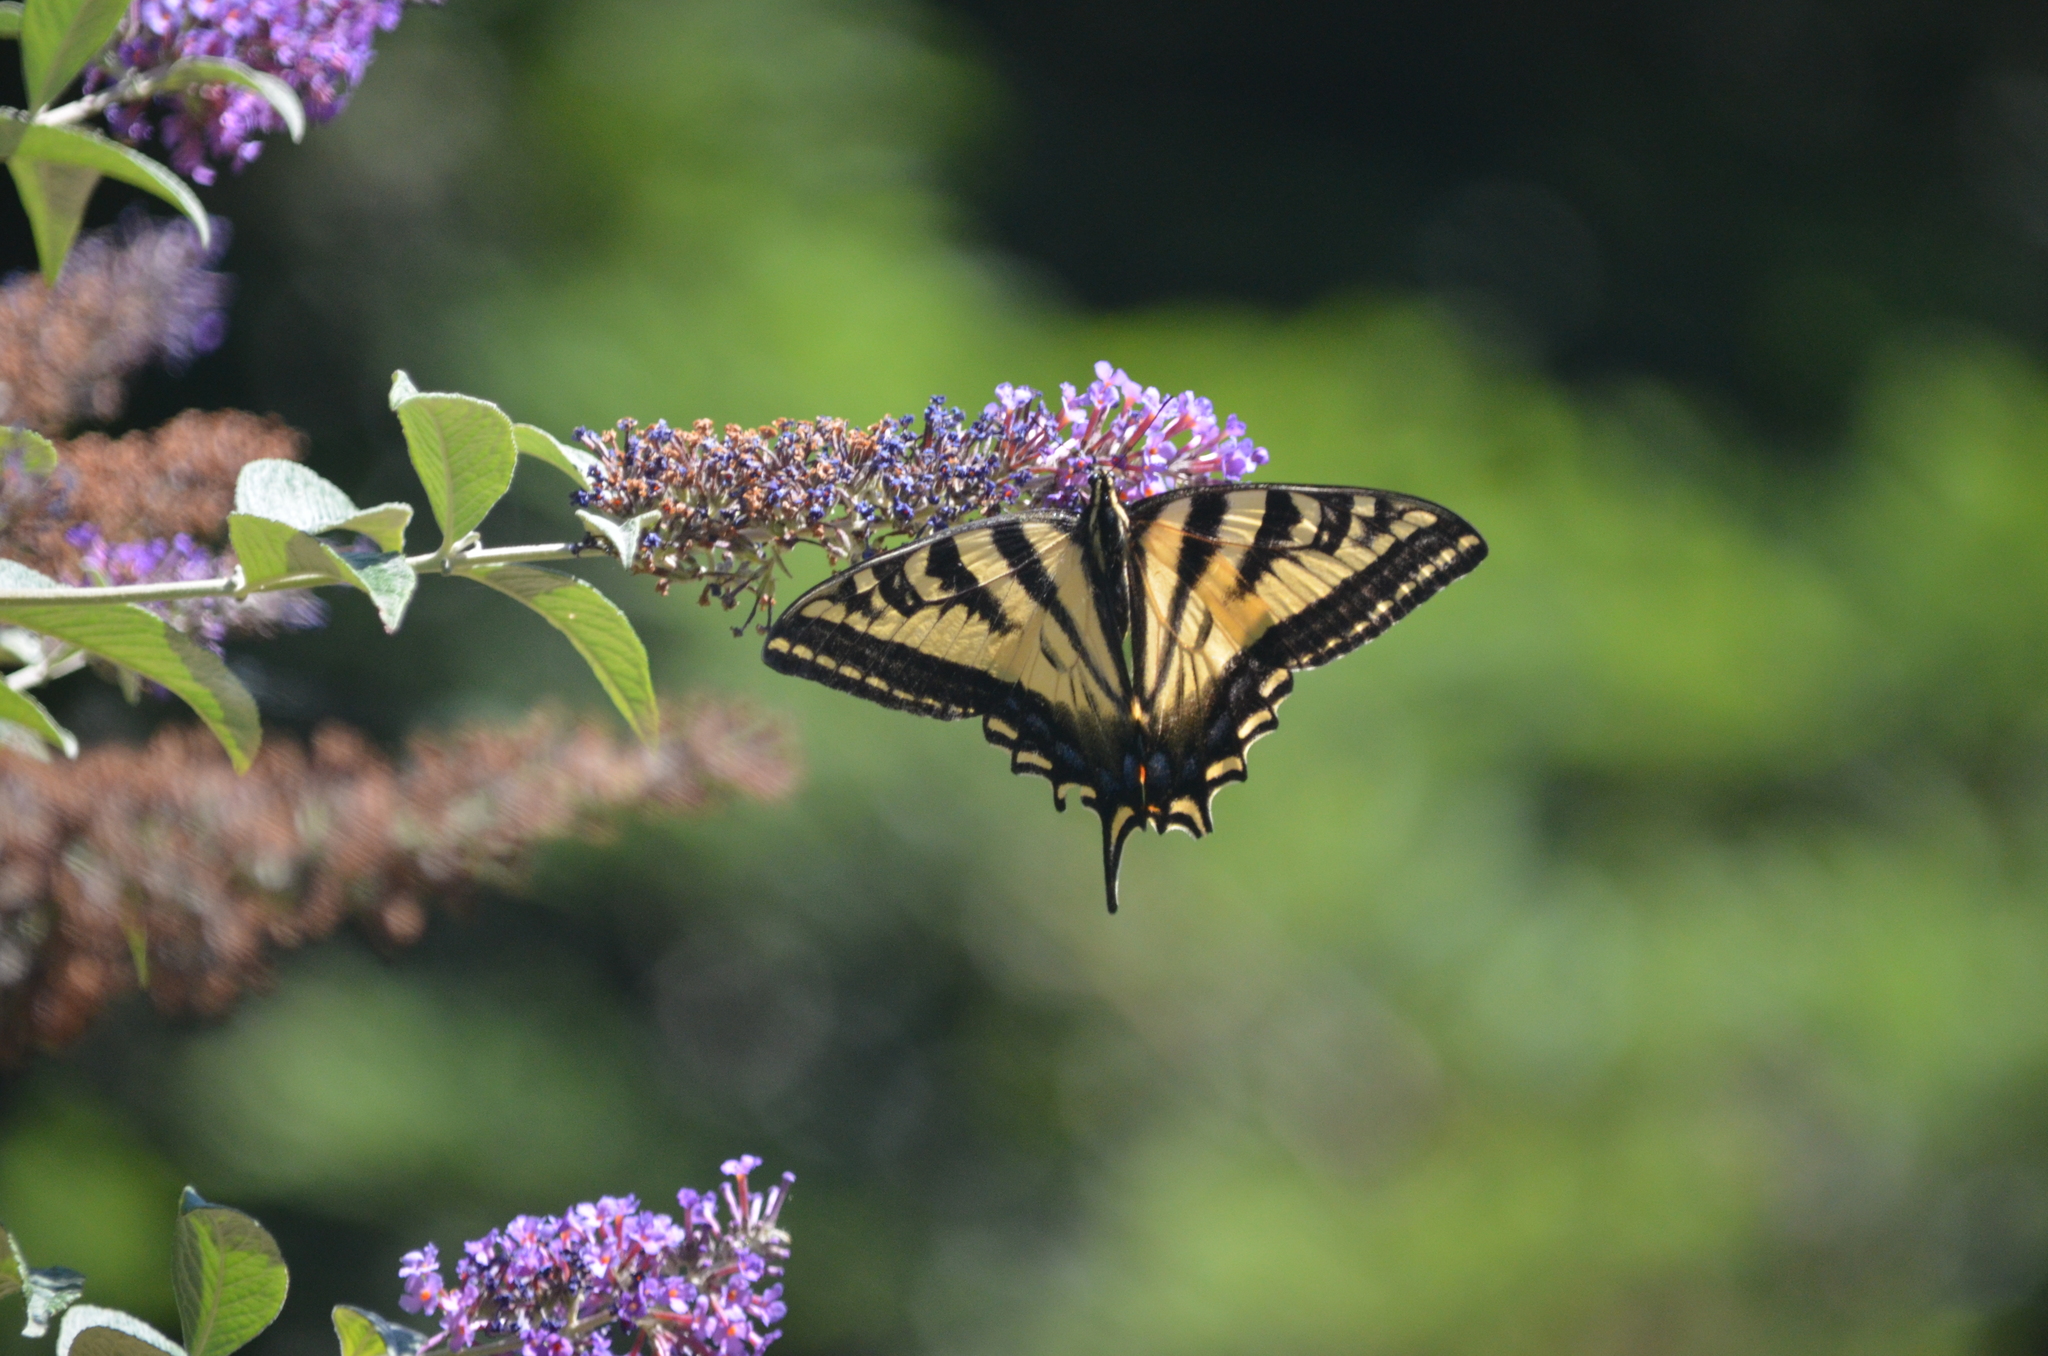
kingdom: Animalia
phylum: Arthropoda
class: Insecta
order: Lepidoptera
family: Papilionidae
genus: Papilio
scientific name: Papilio rutulus
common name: Western tiger swallowtail
